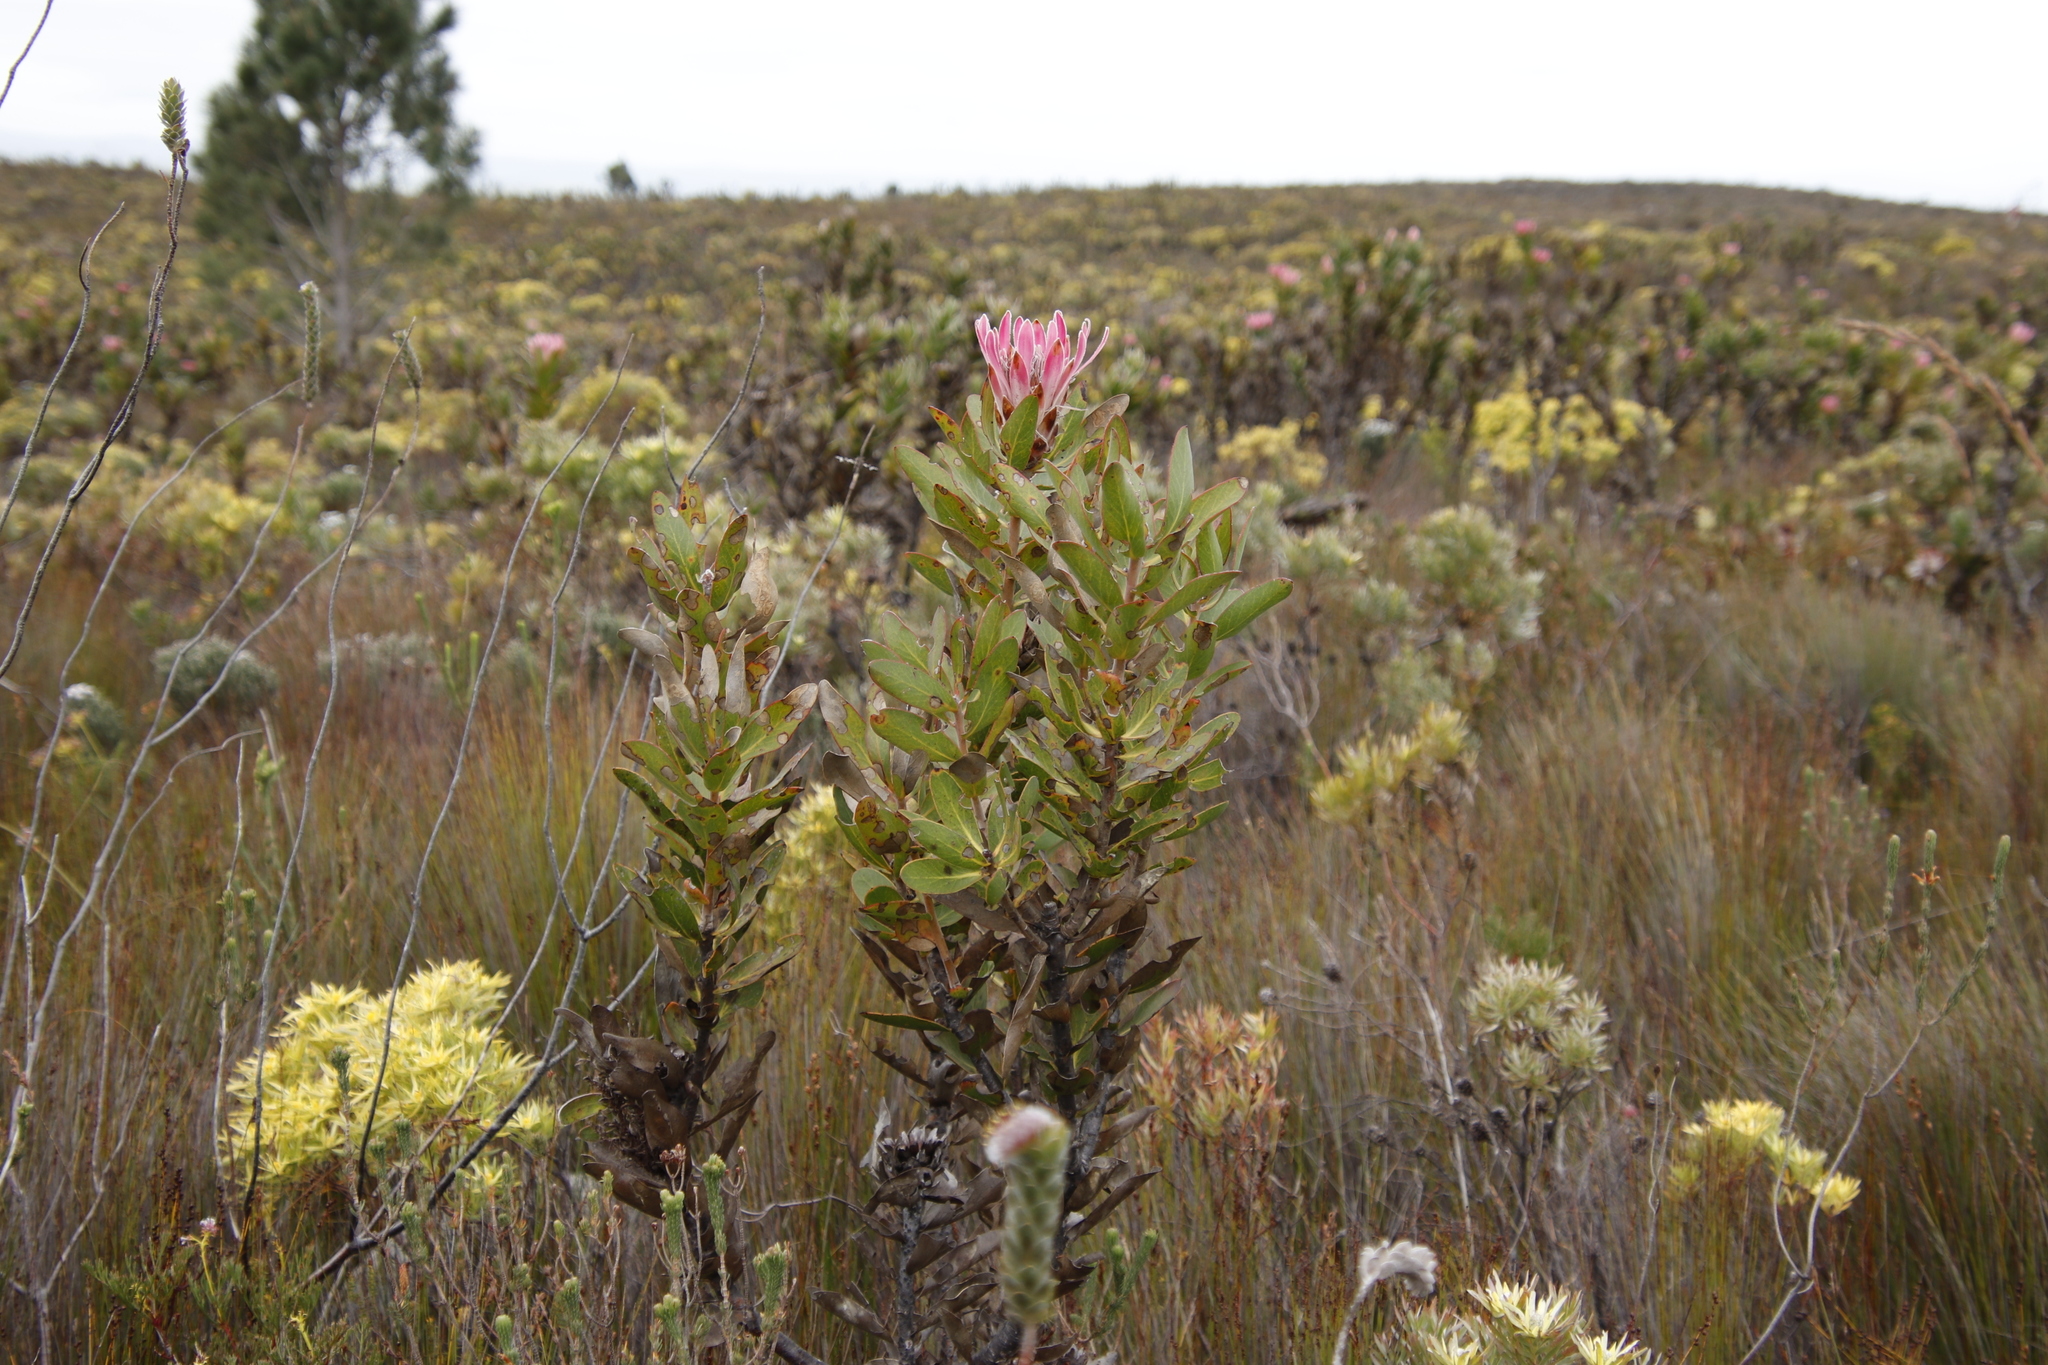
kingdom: Plantae
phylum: Tracheophyta
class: Magnoliopsida
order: Proteales
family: Proteaceae
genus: Protea
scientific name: Protea compacta
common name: Bot river protea
